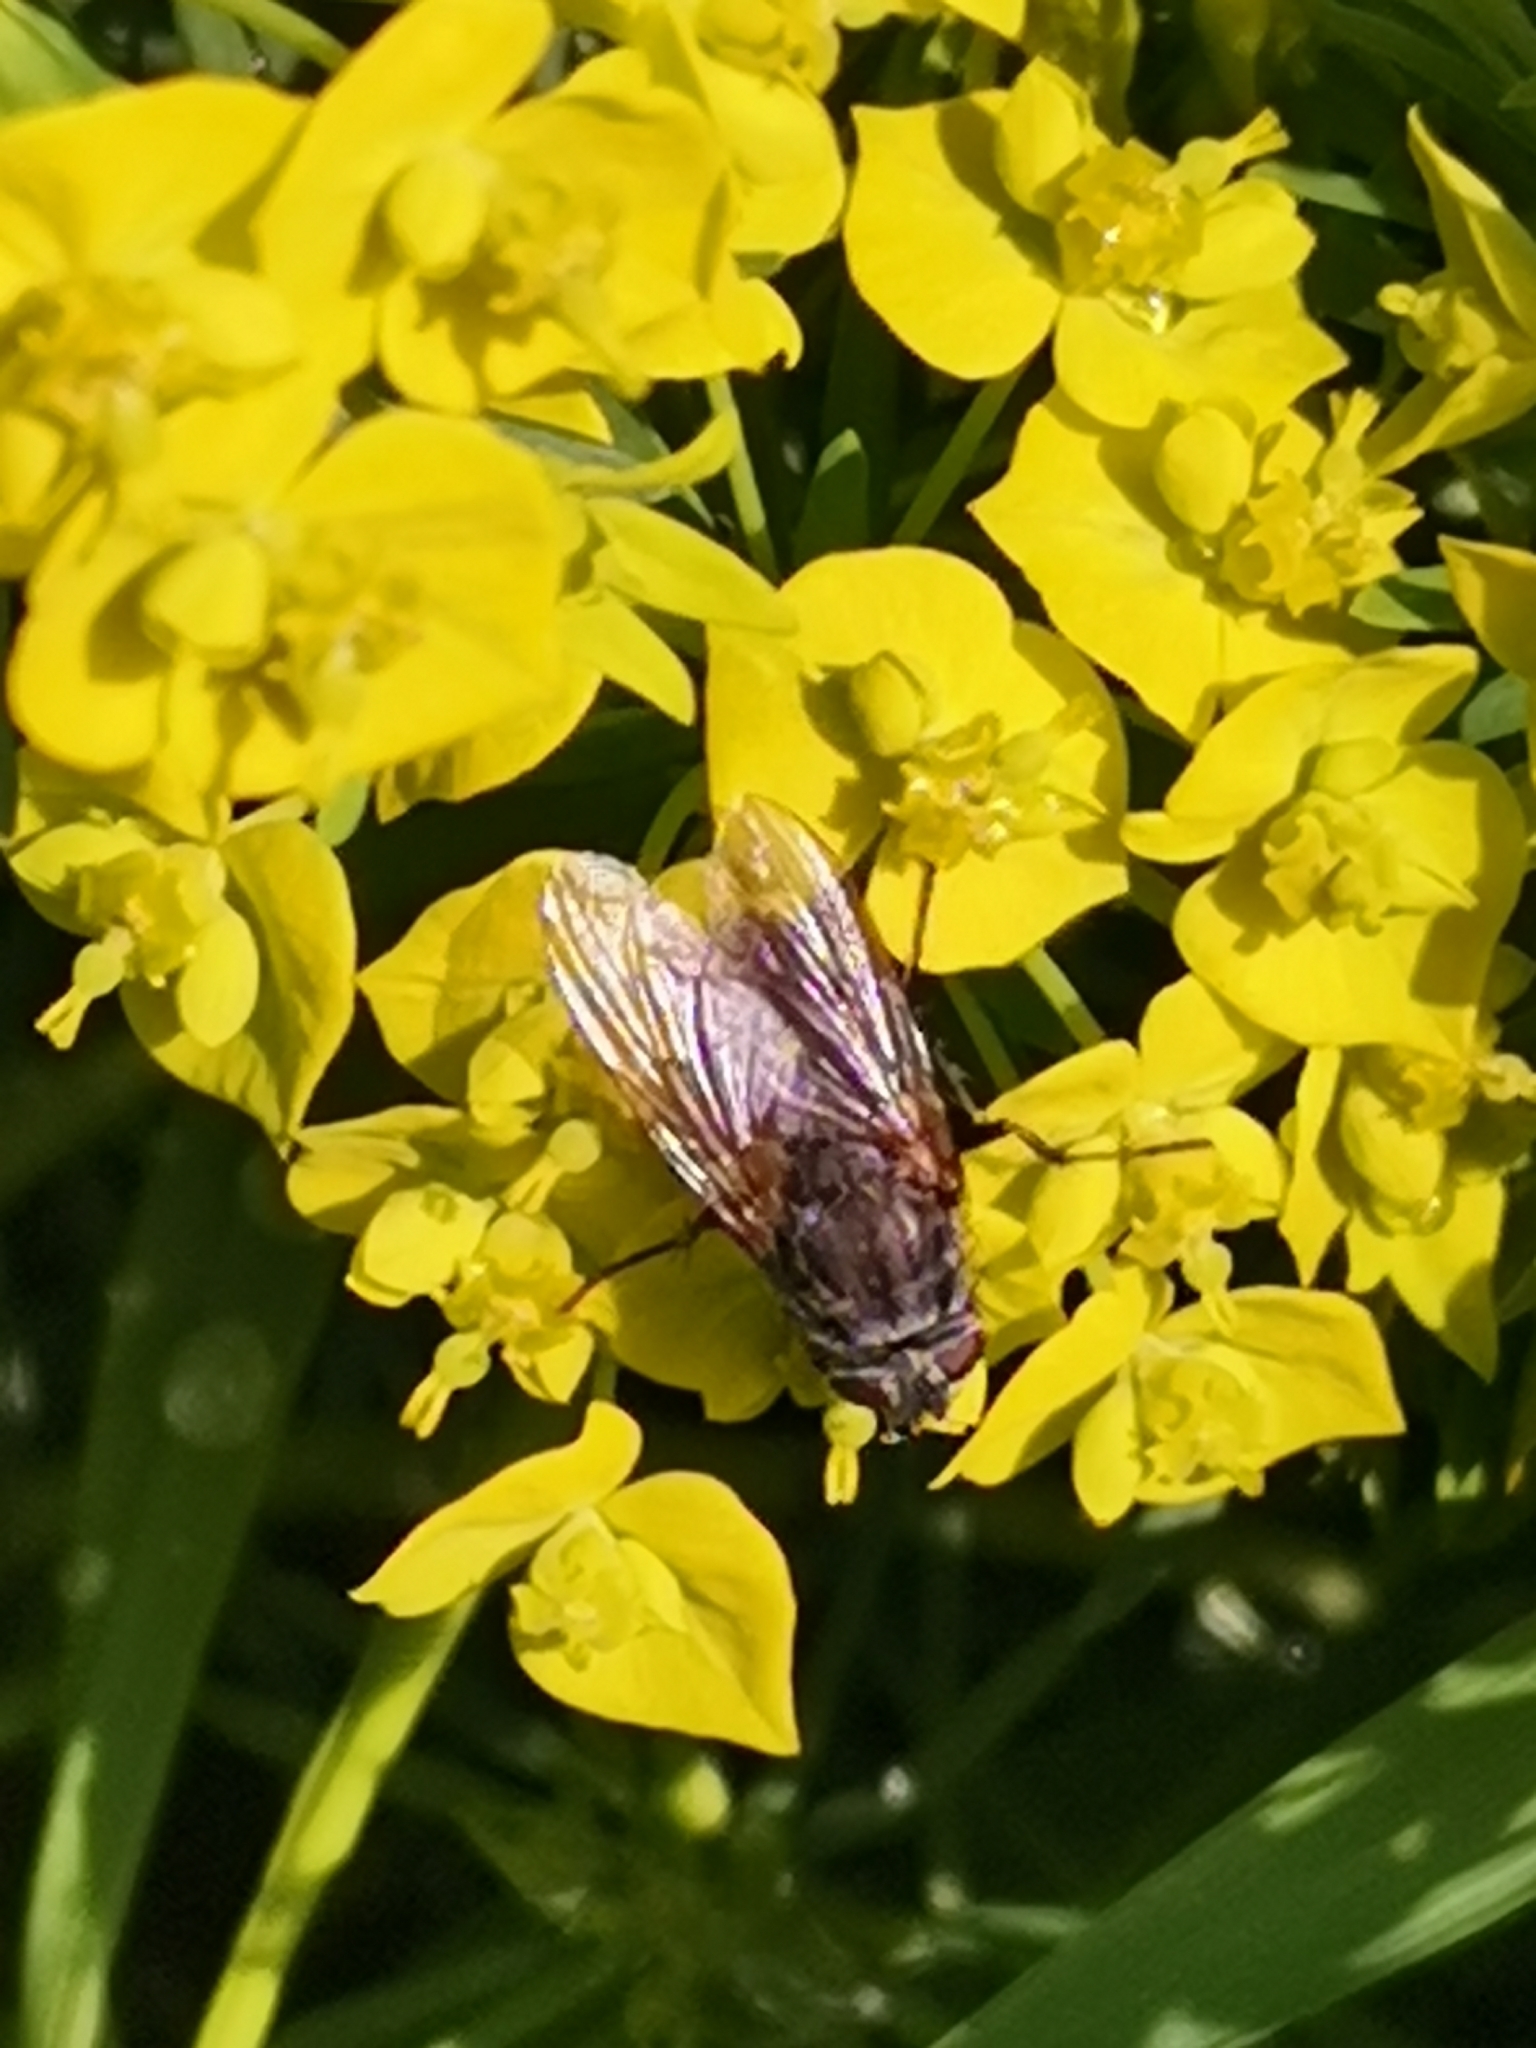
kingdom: Animalia
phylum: Arthropoda
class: Insecta
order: Diptera
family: Polleniidae
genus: Pollenia
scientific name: Pollenia vagabunda
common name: Vagabund cluster fly
